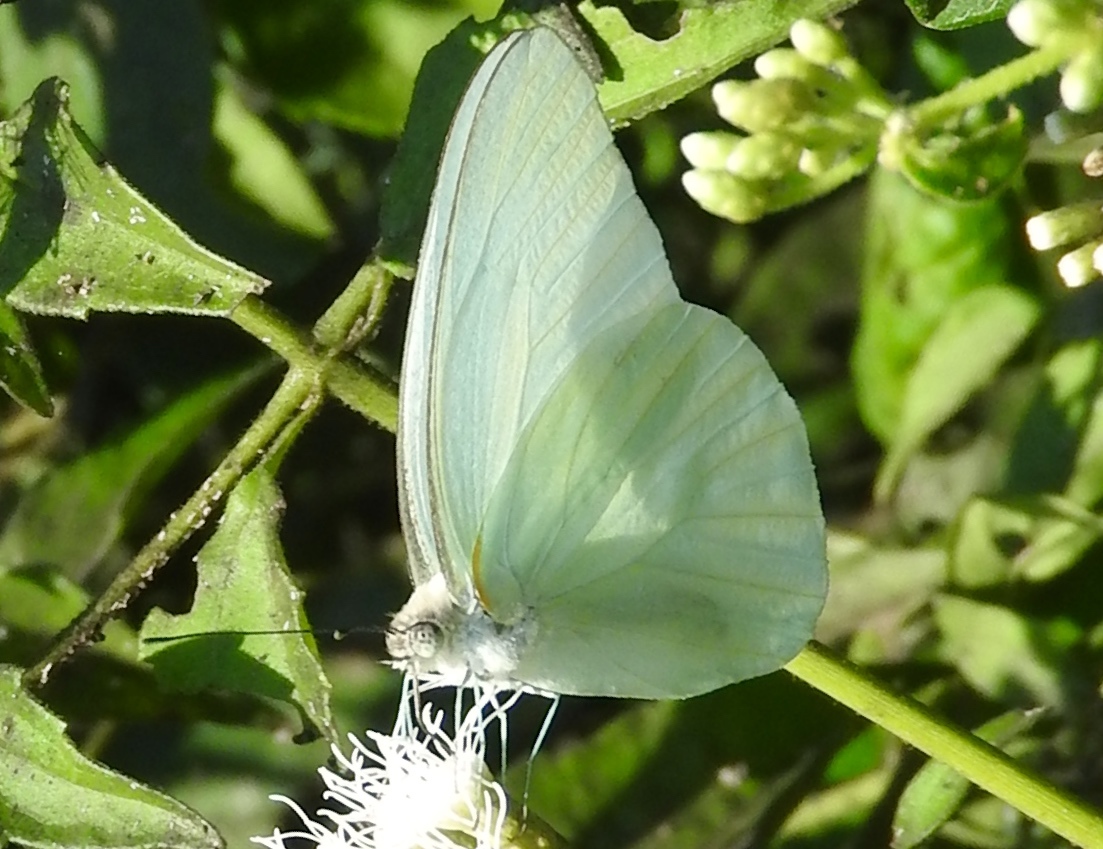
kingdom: Animalia
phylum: Arthropoda
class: Insecta
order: Lepidoptera
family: Pieridae
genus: Glutophrissa
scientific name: Glutophrissa drusilla
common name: Florida white
